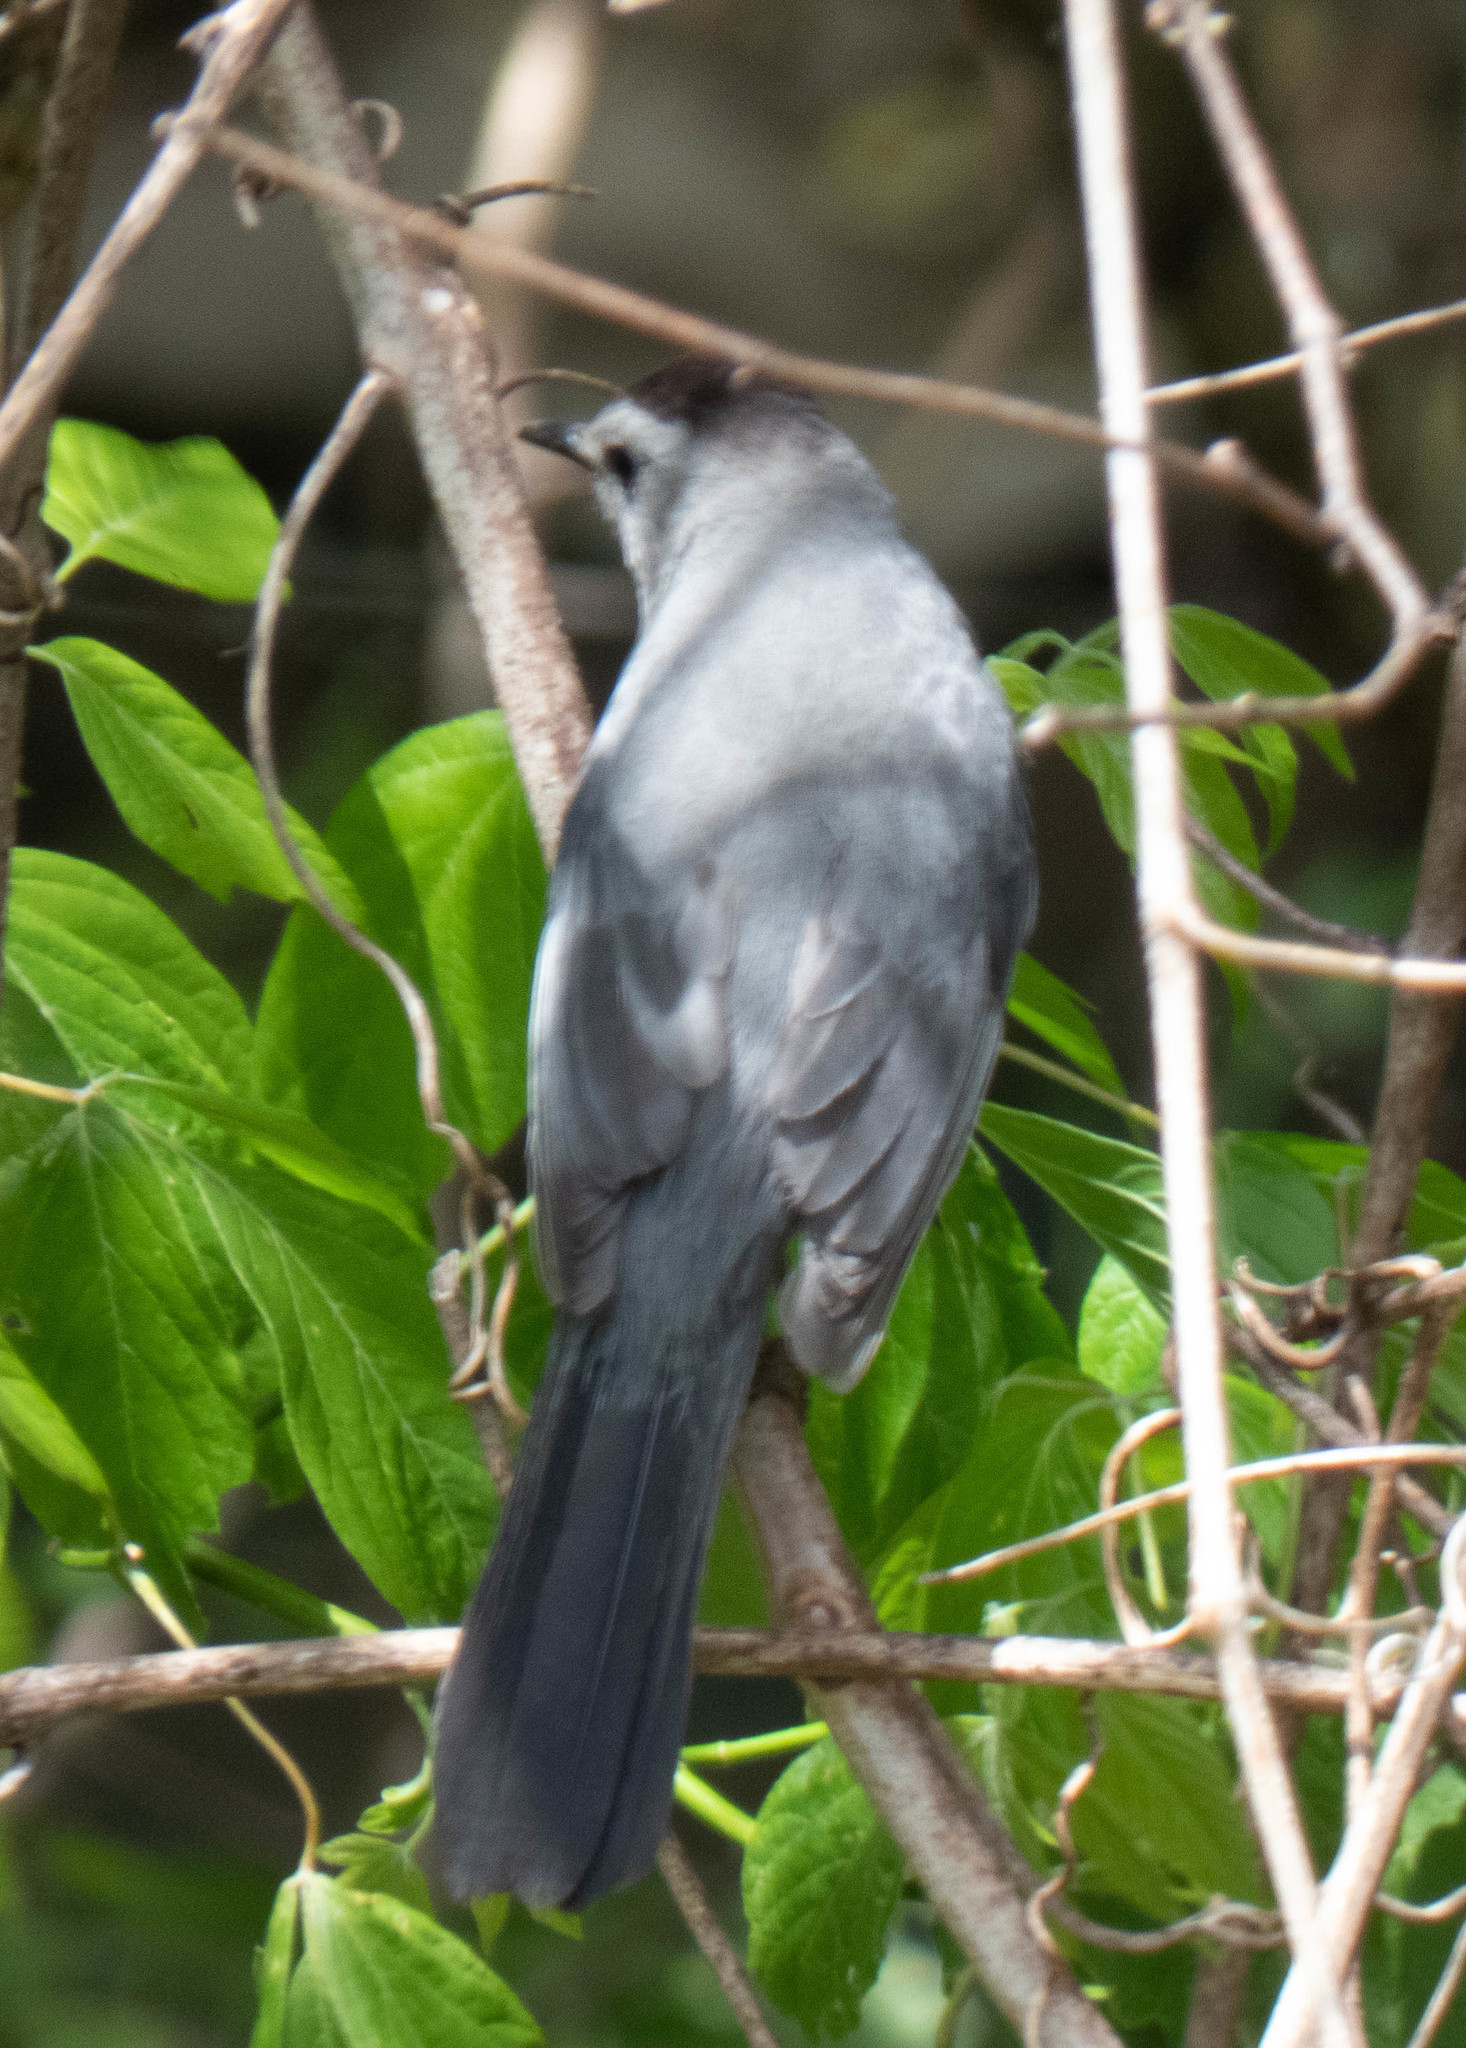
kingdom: Animalia
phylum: Chordata
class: Aves
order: Passeriformes
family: Mimidae
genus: Dumetella
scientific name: Dumetella carolinensis
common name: Gray catbird
